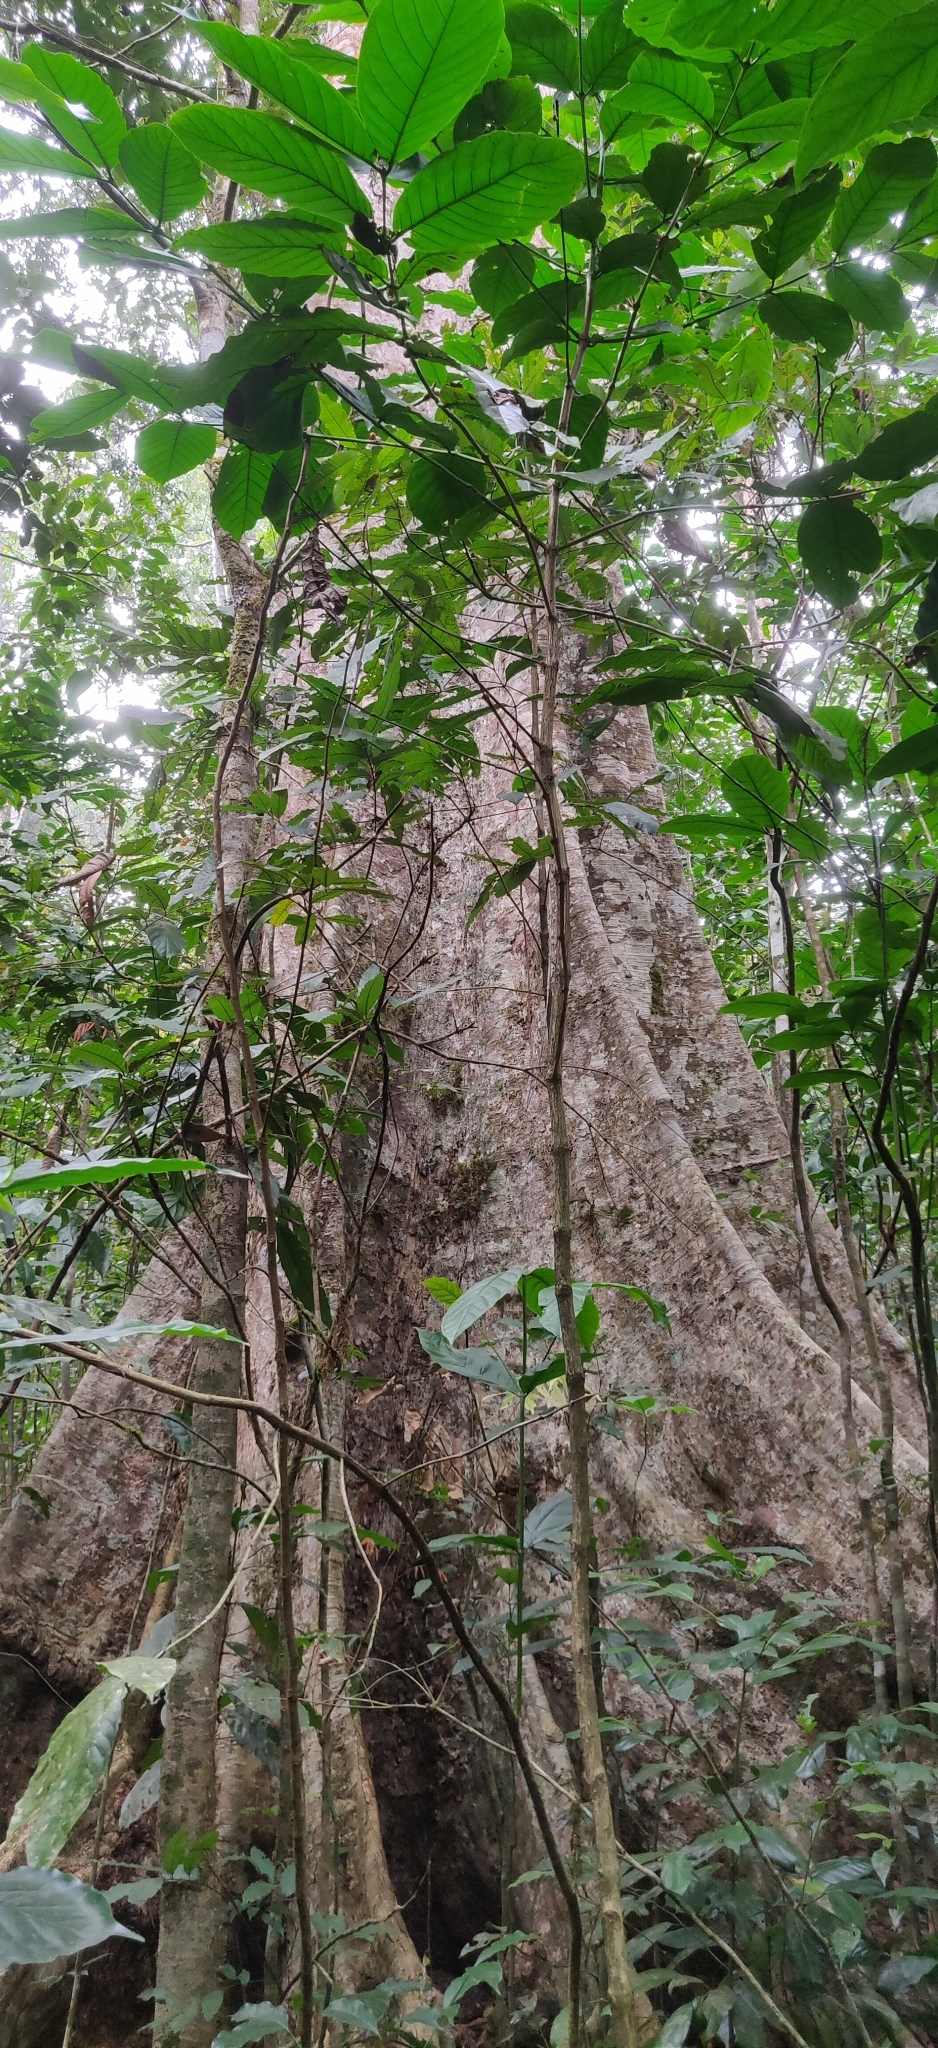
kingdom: Plantae
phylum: Tracheophyta
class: Magnoliopsida
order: Malvales
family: Malvaceae
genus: Heritiera
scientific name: Heritiera papilio
